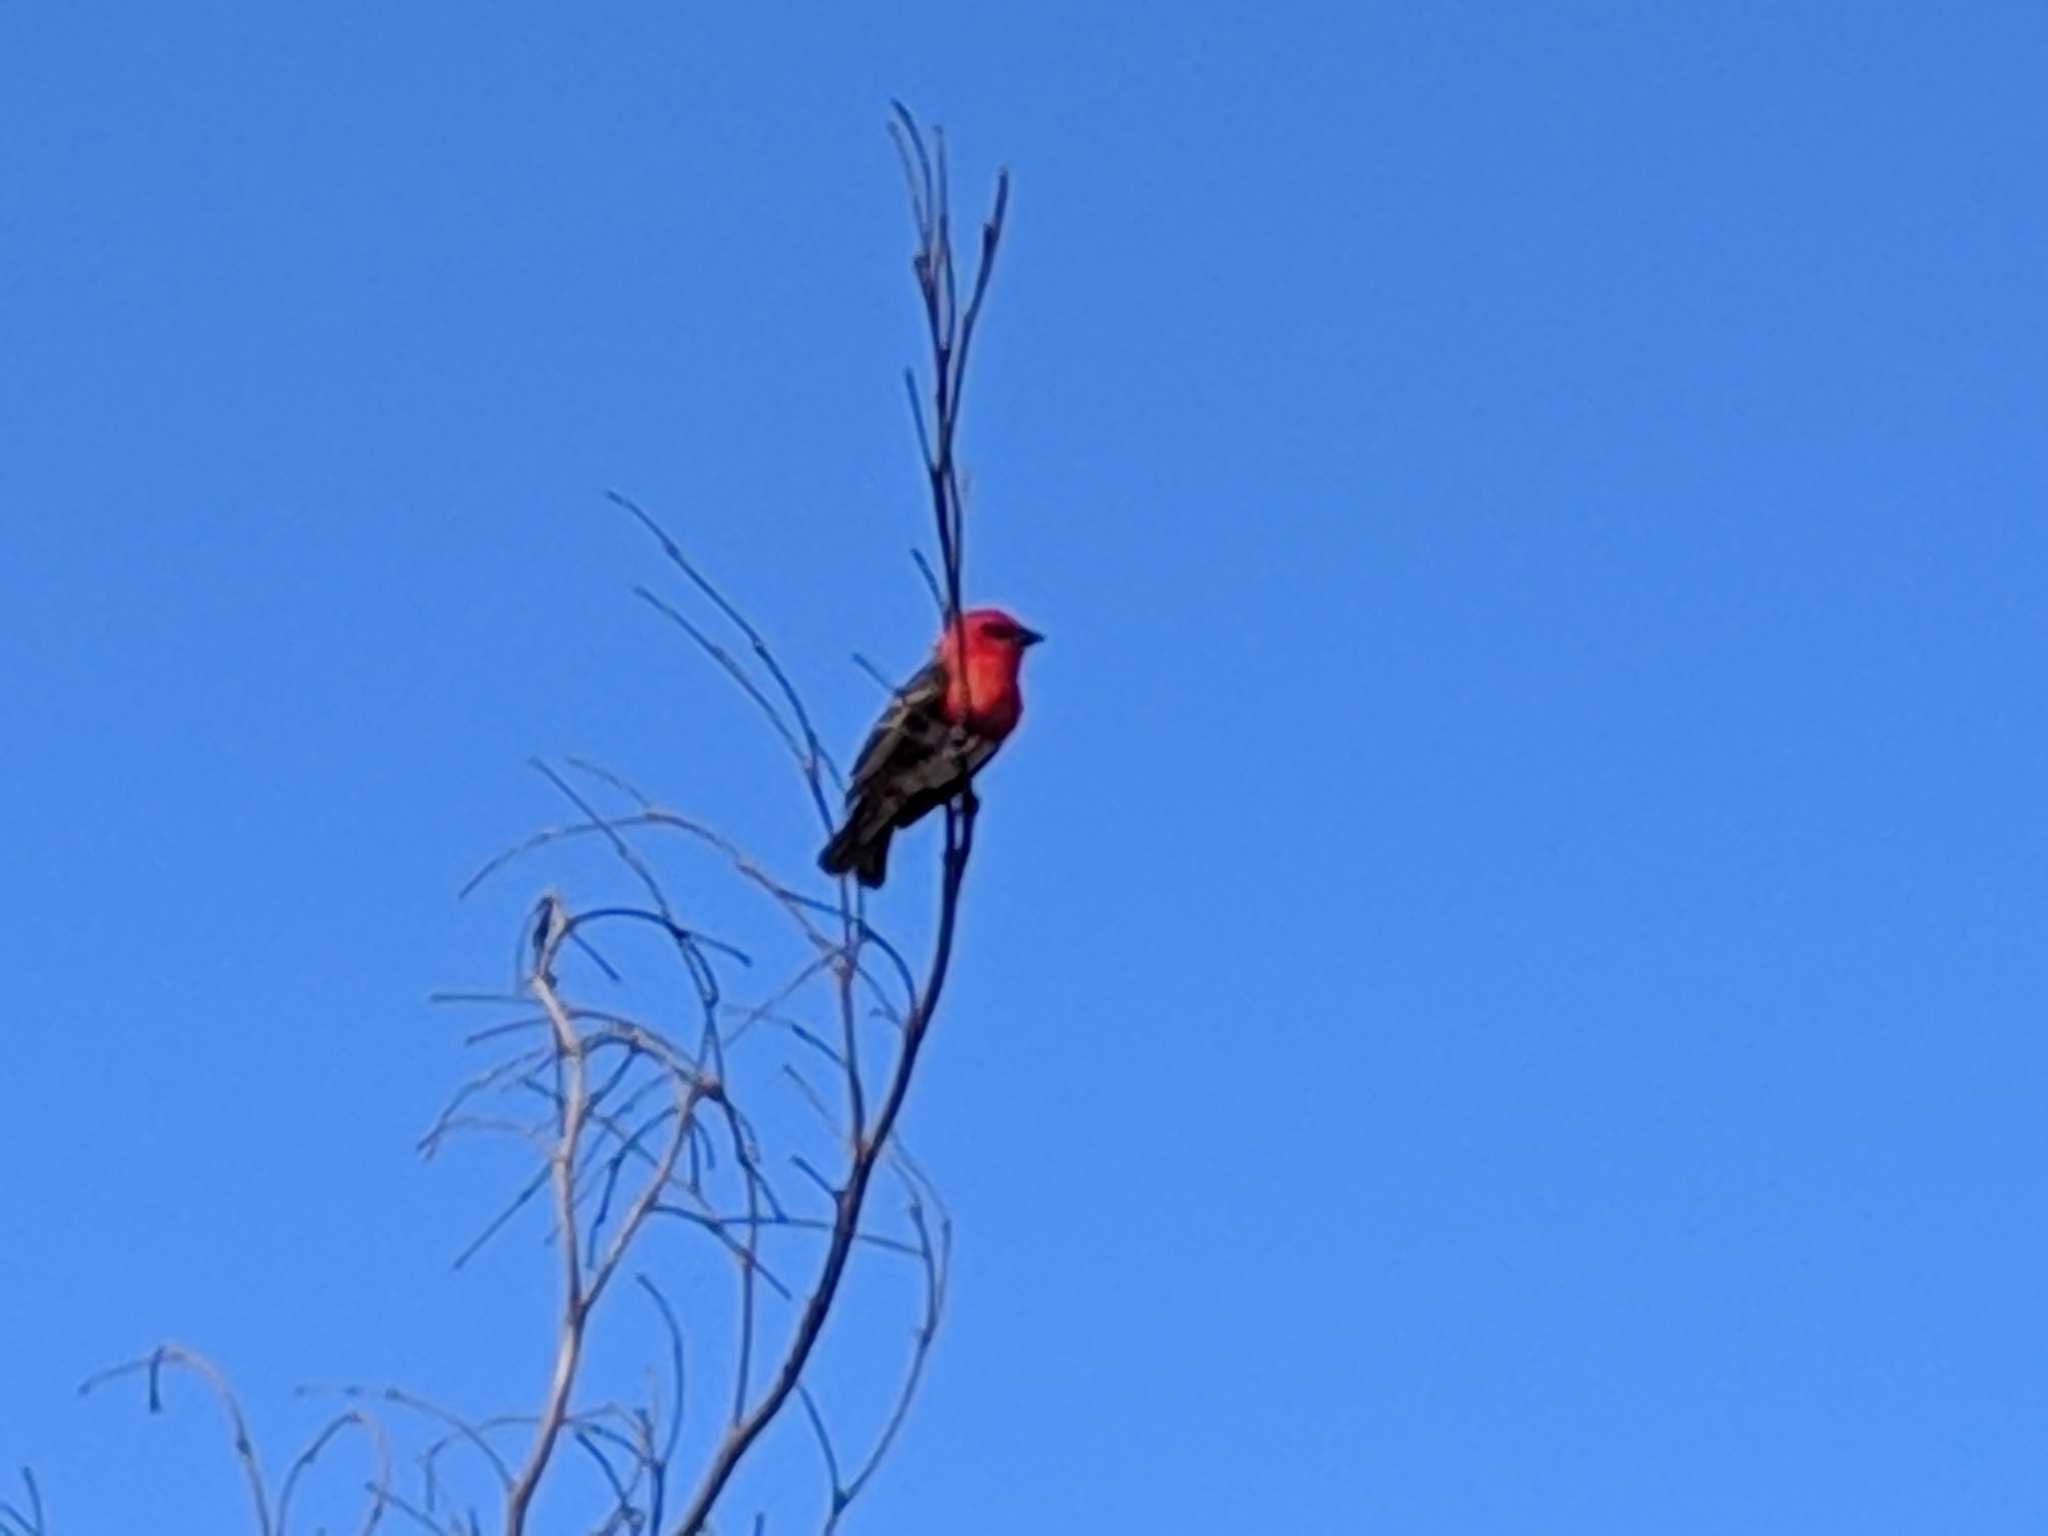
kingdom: Animalia
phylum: Chordata
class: Aves
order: Passeriformes
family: Ploceidae
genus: Foudia
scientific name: Foudia madagascariensis
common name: Red fody
